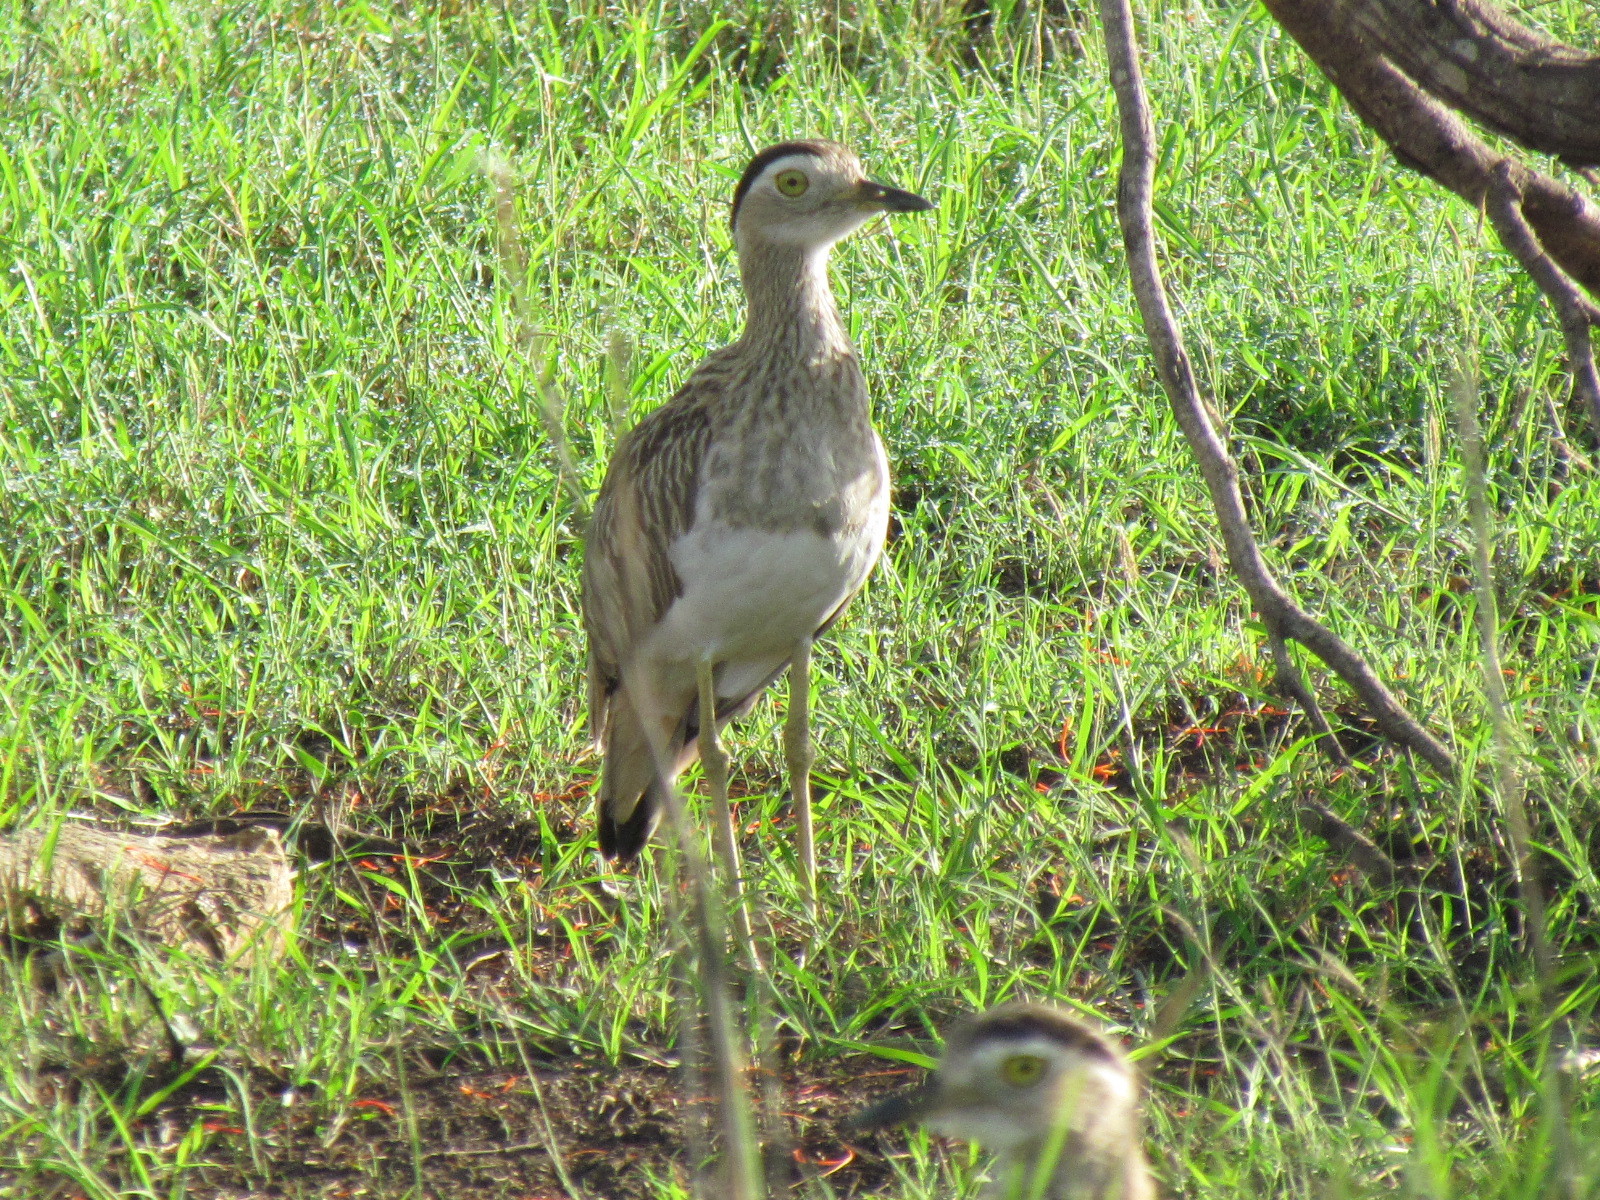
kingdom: Animalia
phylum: Chordata
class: Aves
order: Charadriiformes
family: Burhinidae
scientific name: Burhinidae
